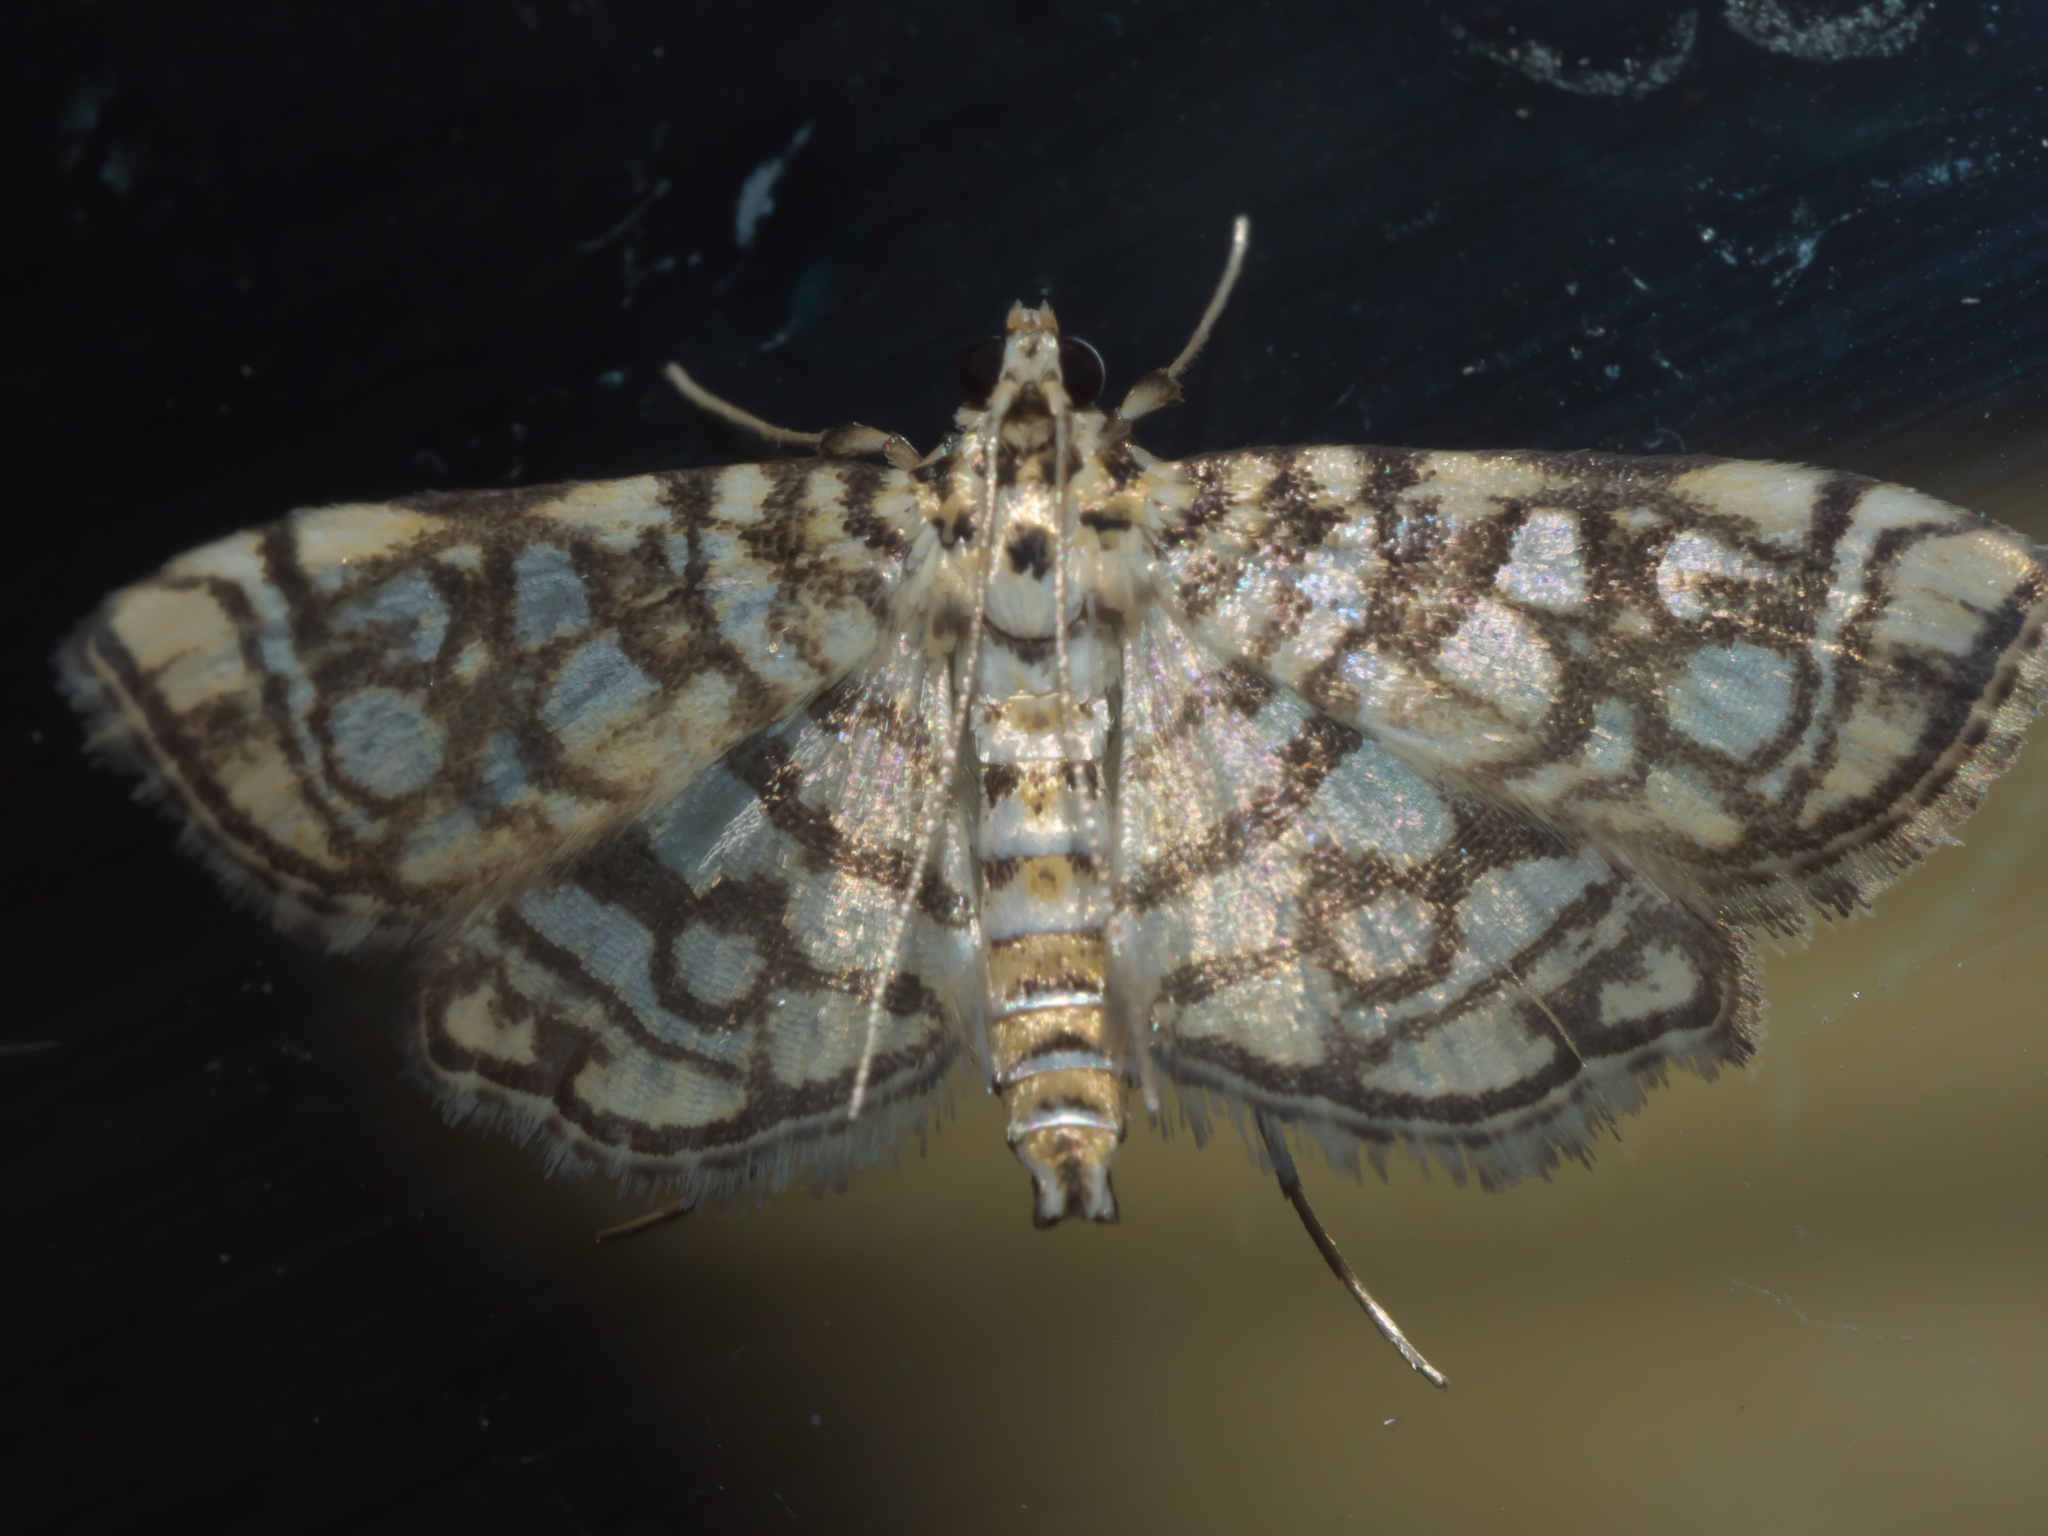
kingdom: Animalia
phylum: Arthropoda
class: Insecta
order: Lepidoptera
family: Crambidae
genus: Lygropia
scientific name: Lygropia rivulalis
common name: Bog lygropia moth
